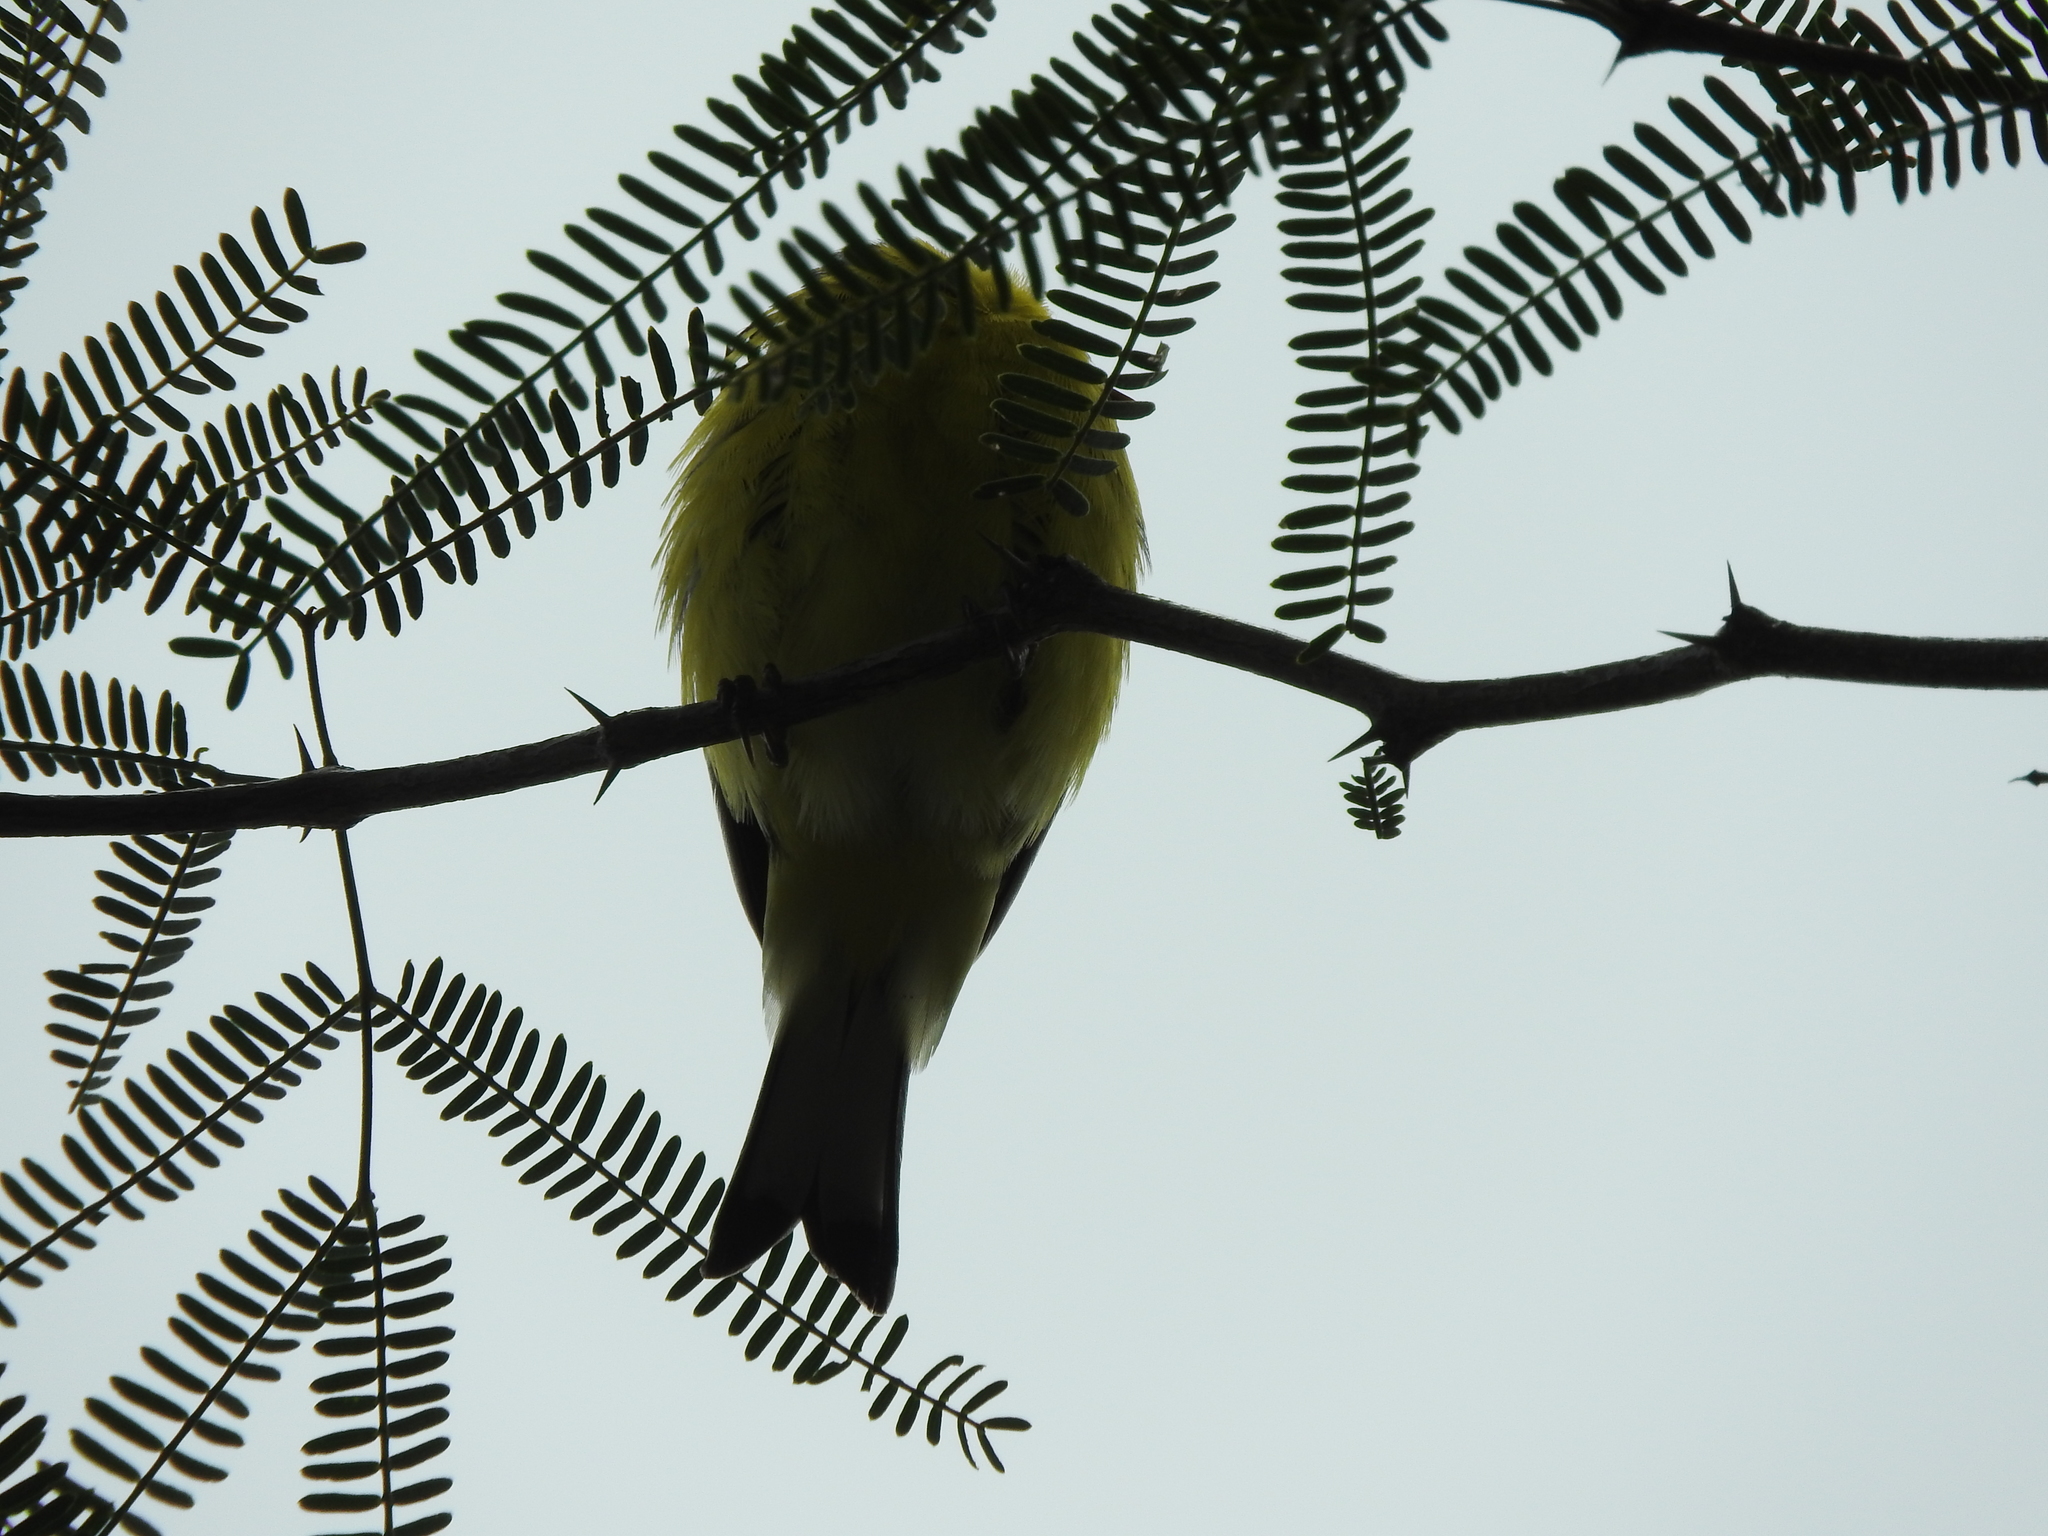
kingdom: Animalia
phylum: Chordata
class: Aves
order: Passeriformes
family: Fringillidae
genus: Spinus
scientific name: Spinus psaltria
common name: Lesser goldfinch
